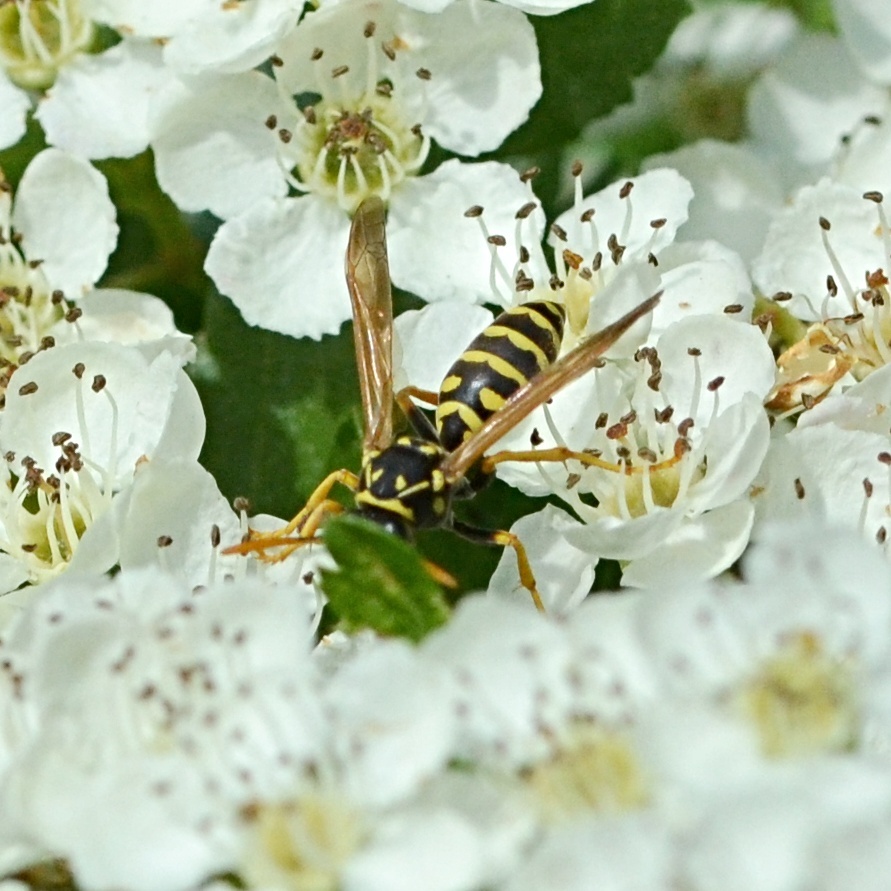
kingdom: Animalia
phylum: Arthropoda
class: Insecta
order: Hymenoptera
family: Eumenidae
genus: Polistes
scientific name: Polistes dominula
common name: Paper wasp
